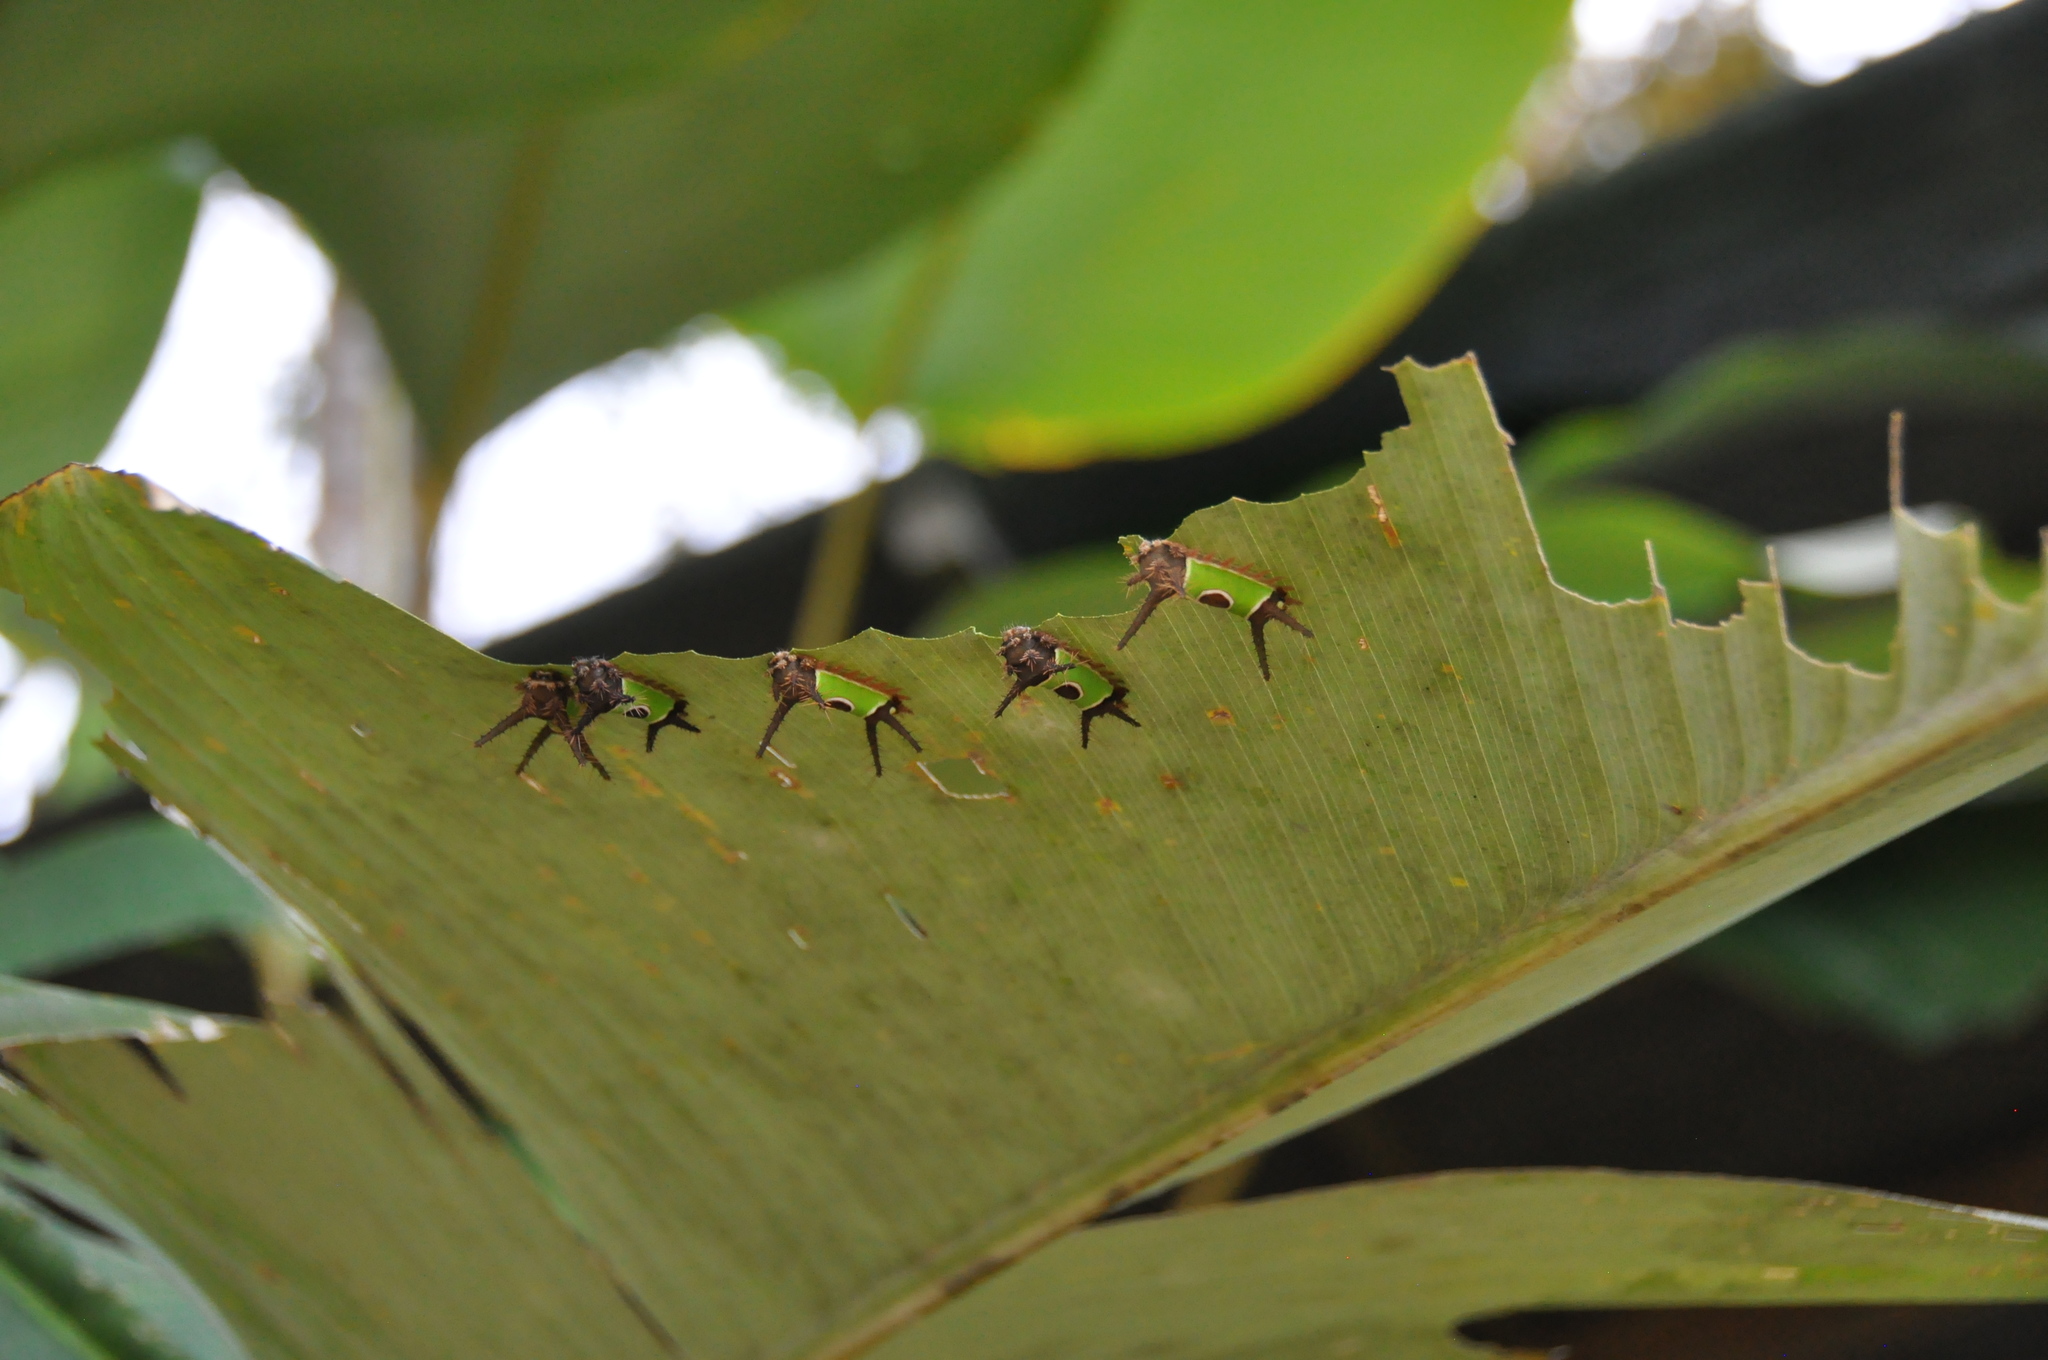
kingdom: Animalia
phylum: Arthropoda
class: Insecta
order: Lepidoptera
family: Limacodidae
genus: Acharia
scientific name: Acharia hyperoche
